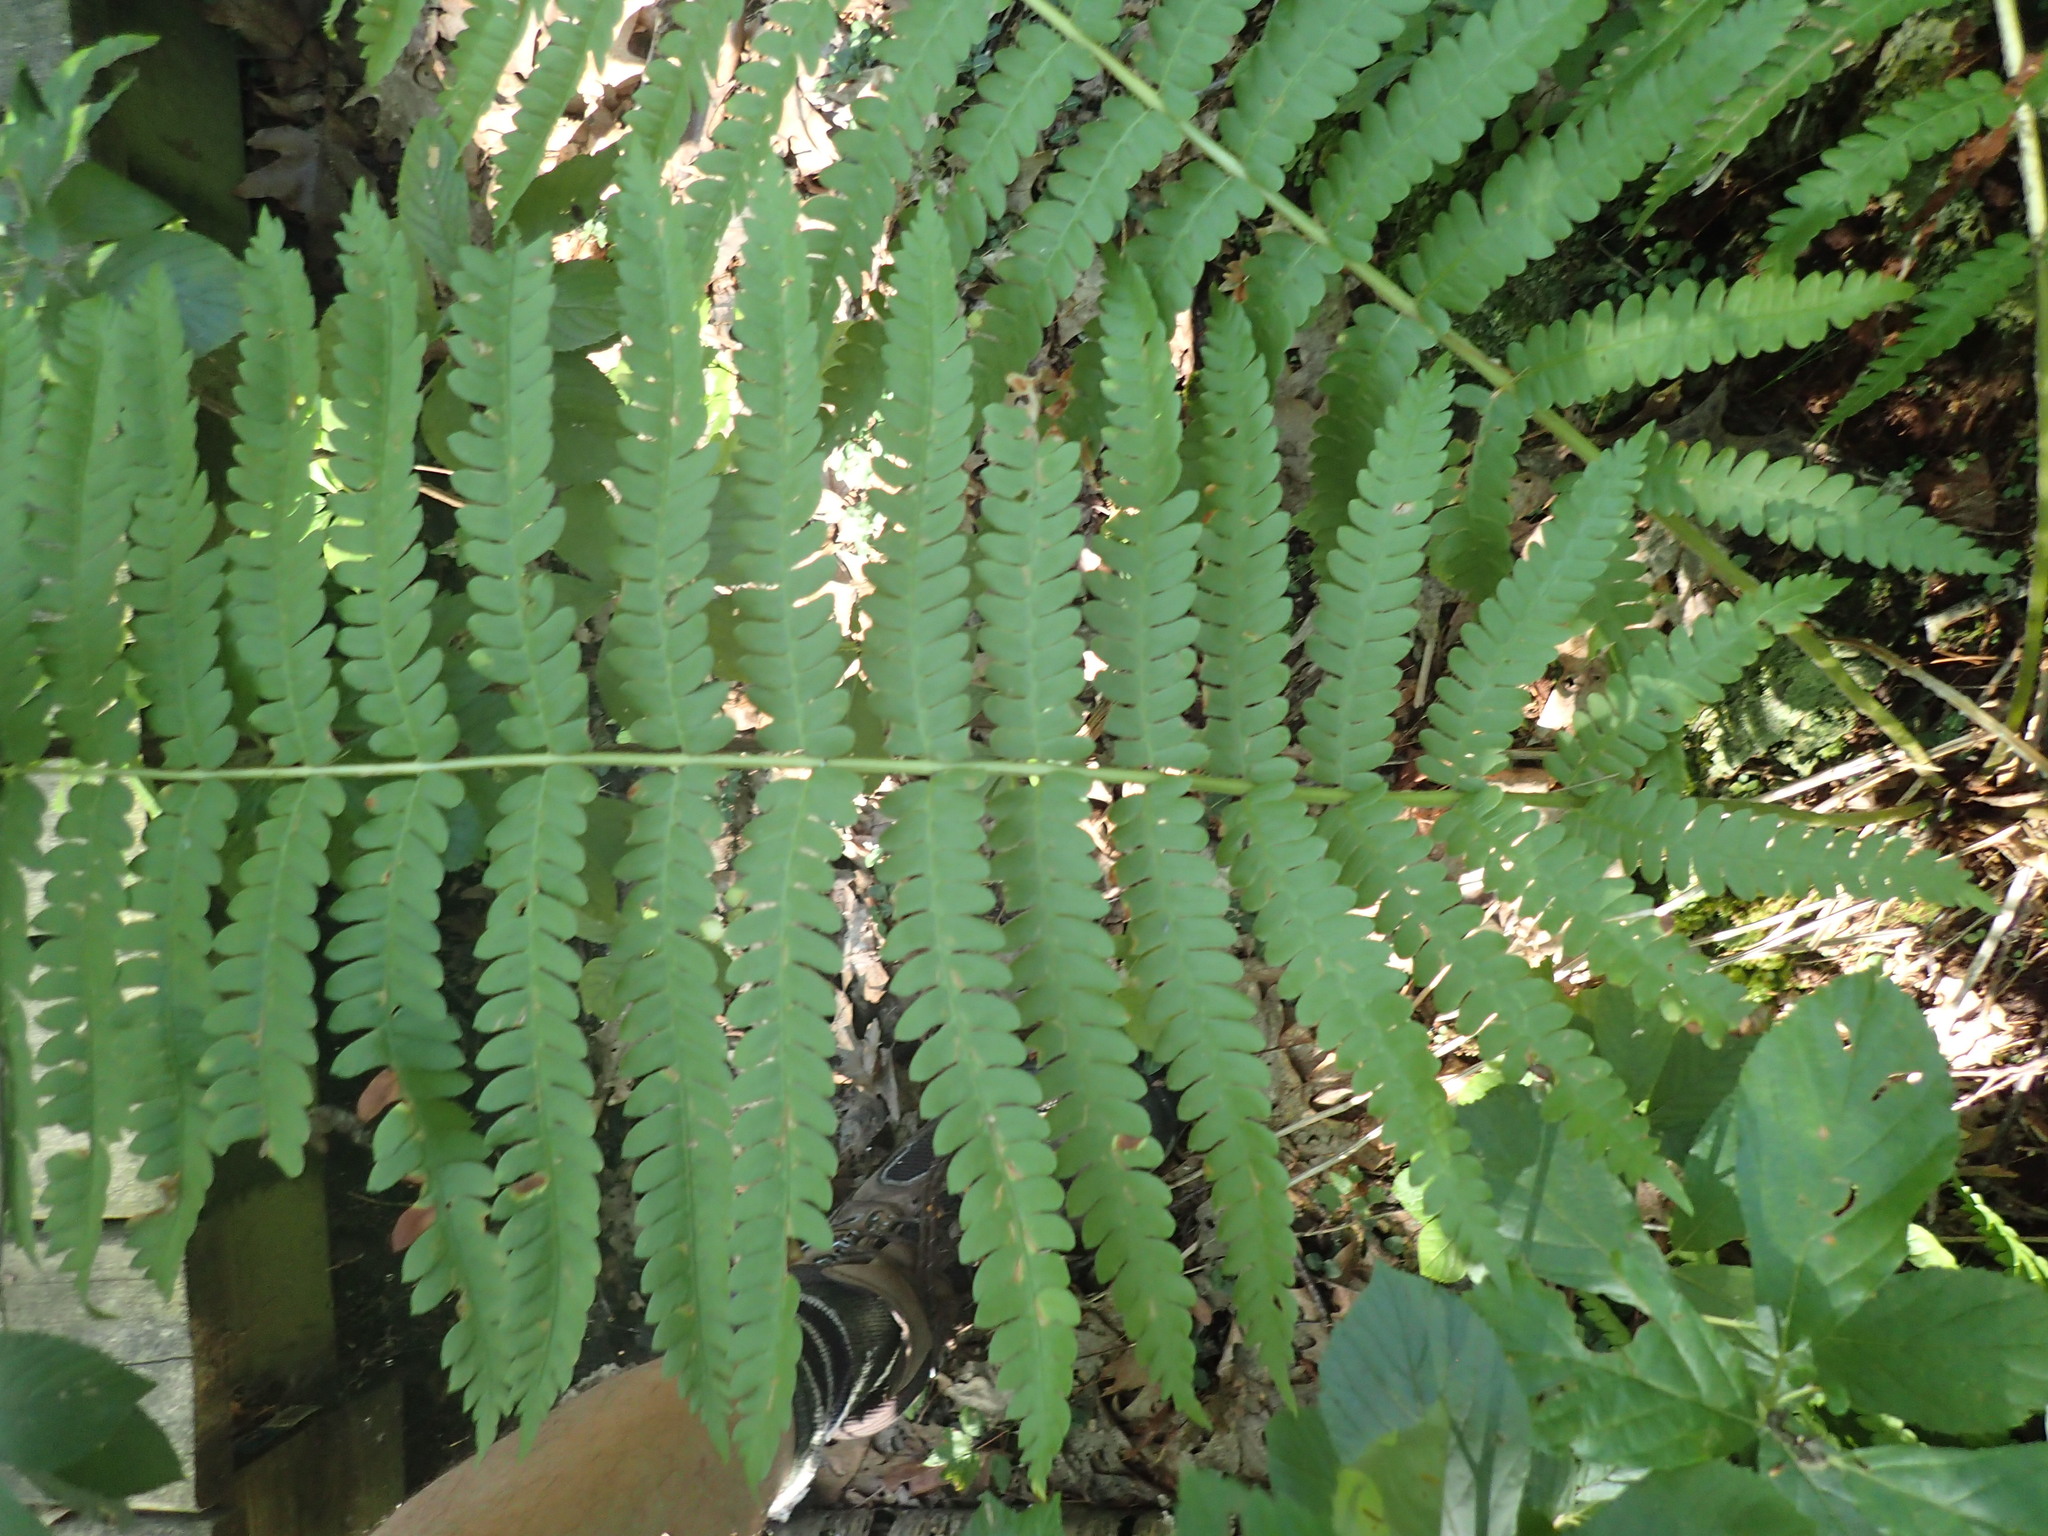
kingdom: Plantae
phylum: Tracheophyta
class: Polypodiopsida
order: Osmundales
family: Osmundaceae
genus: Osmundastrum
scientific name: Osmundastrum cinnamomeum
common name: Cinnamon fern
